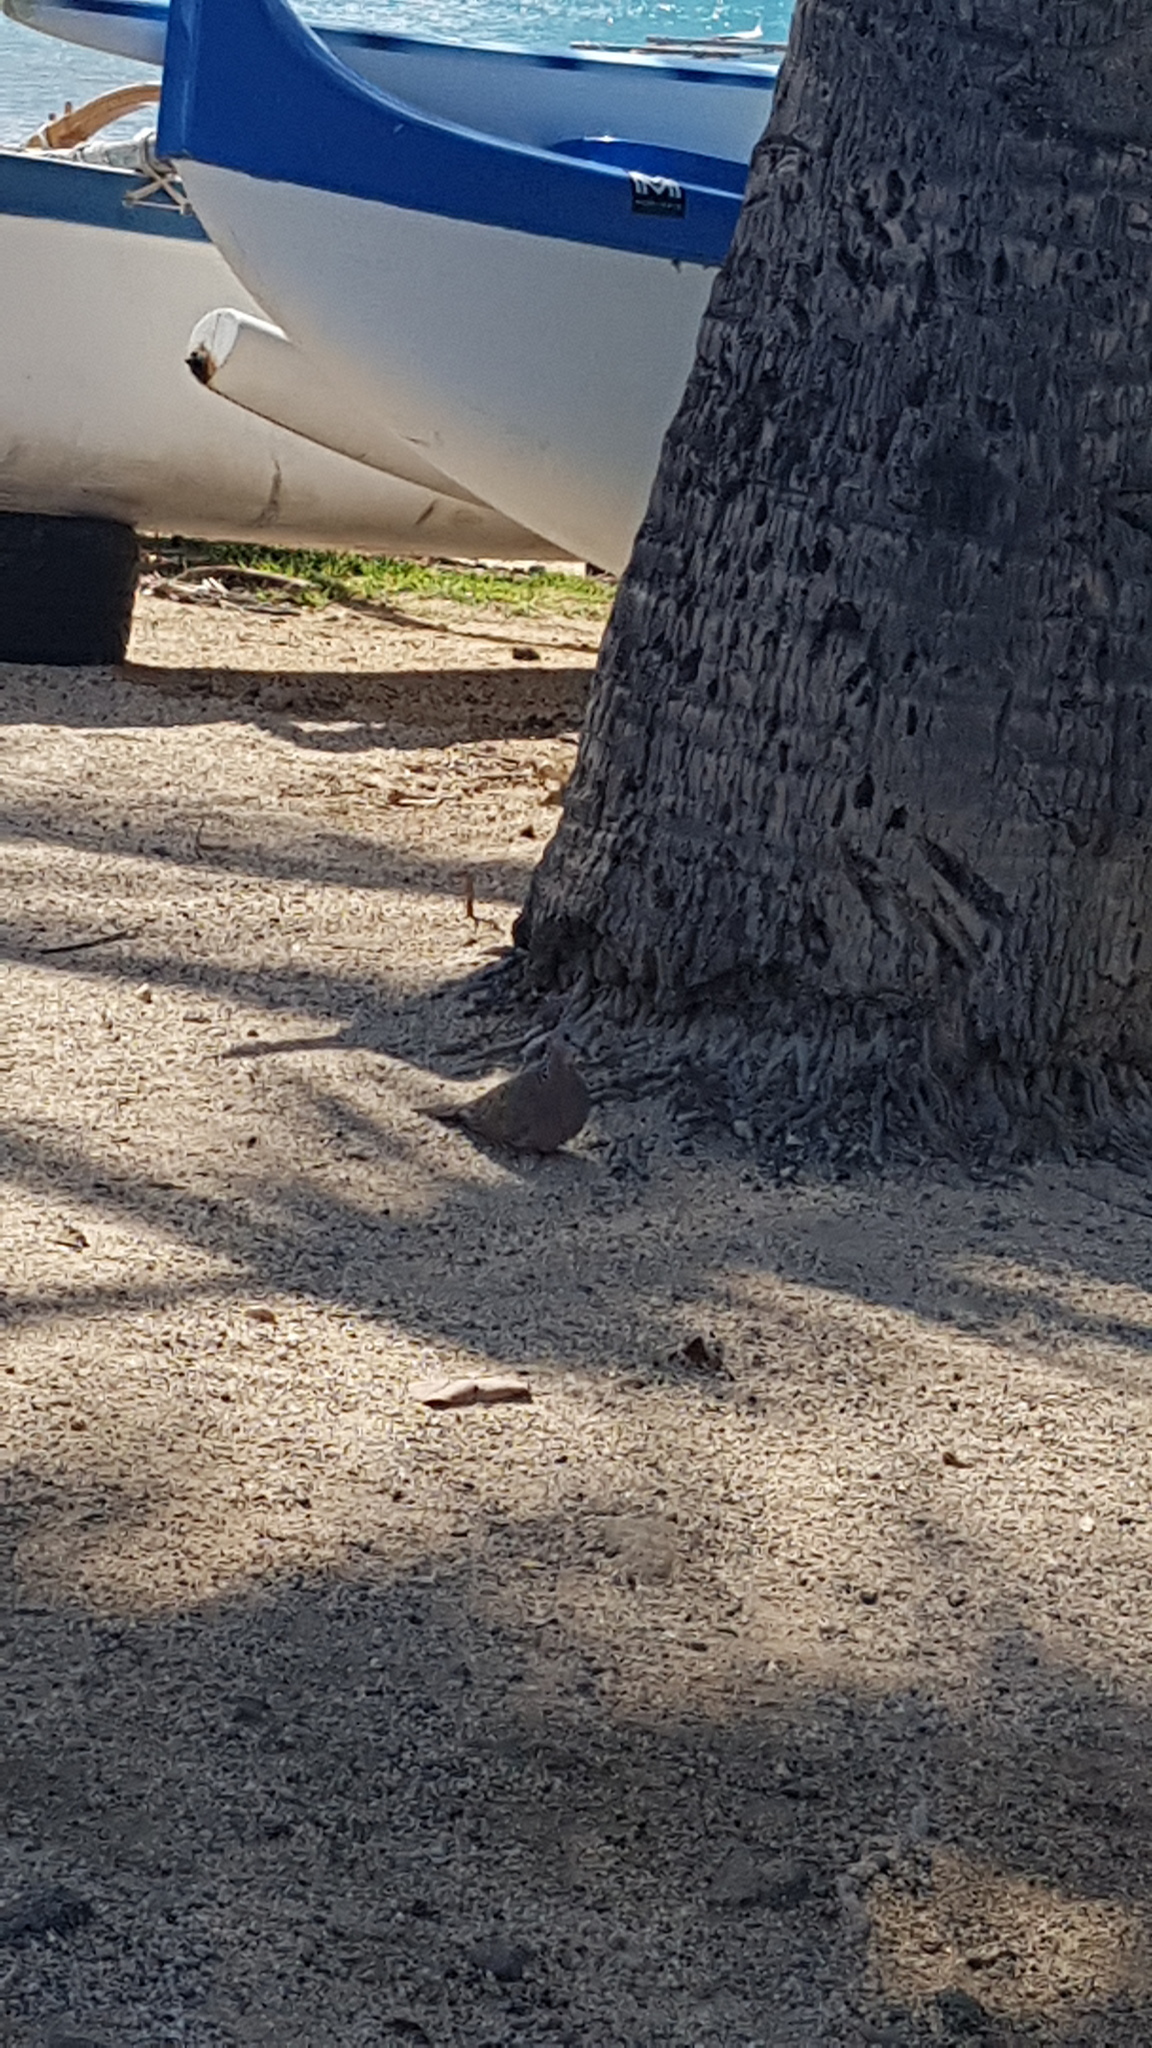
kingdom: Animalia
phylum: Chordata
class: Aves
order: Columbiformes
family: Columbidae
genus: Spilopelia
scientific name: Spilopelia chinensis
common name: Spotted dove
